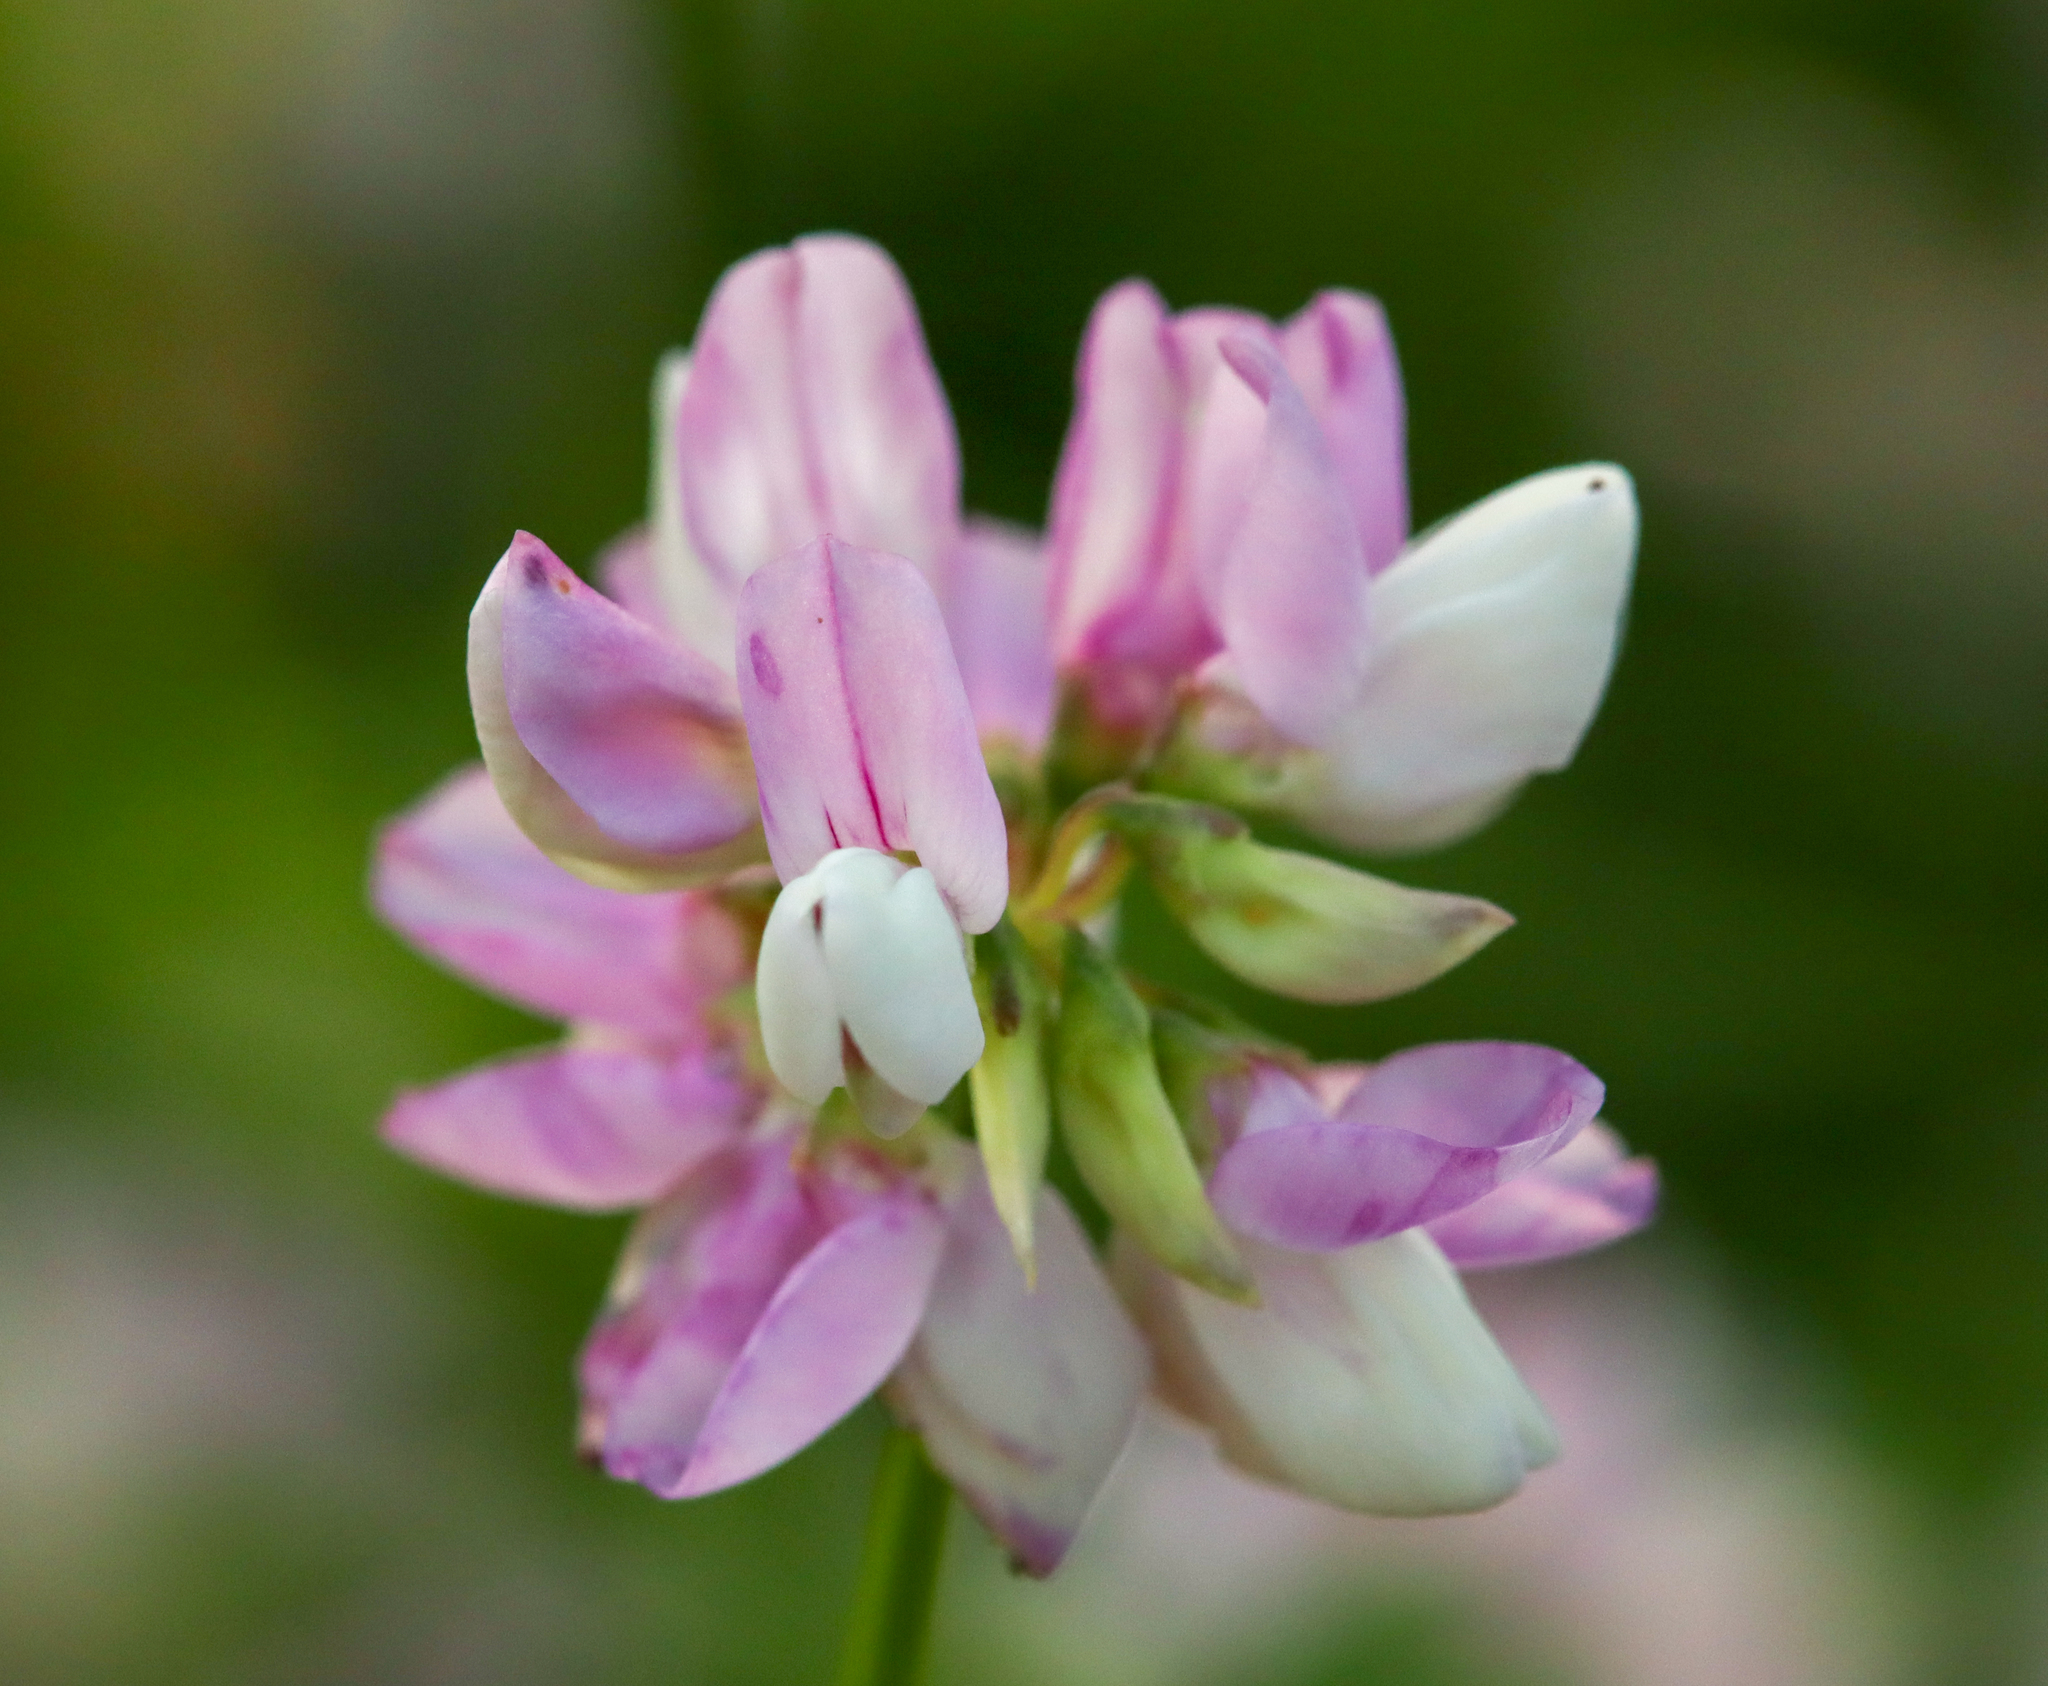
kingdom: Plantae
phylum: Tracheophyta
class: Magnoliopsida
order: Fabales
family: Fabaceae
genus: Coronilla
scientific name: Coronilla varia
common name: Crownvetch
